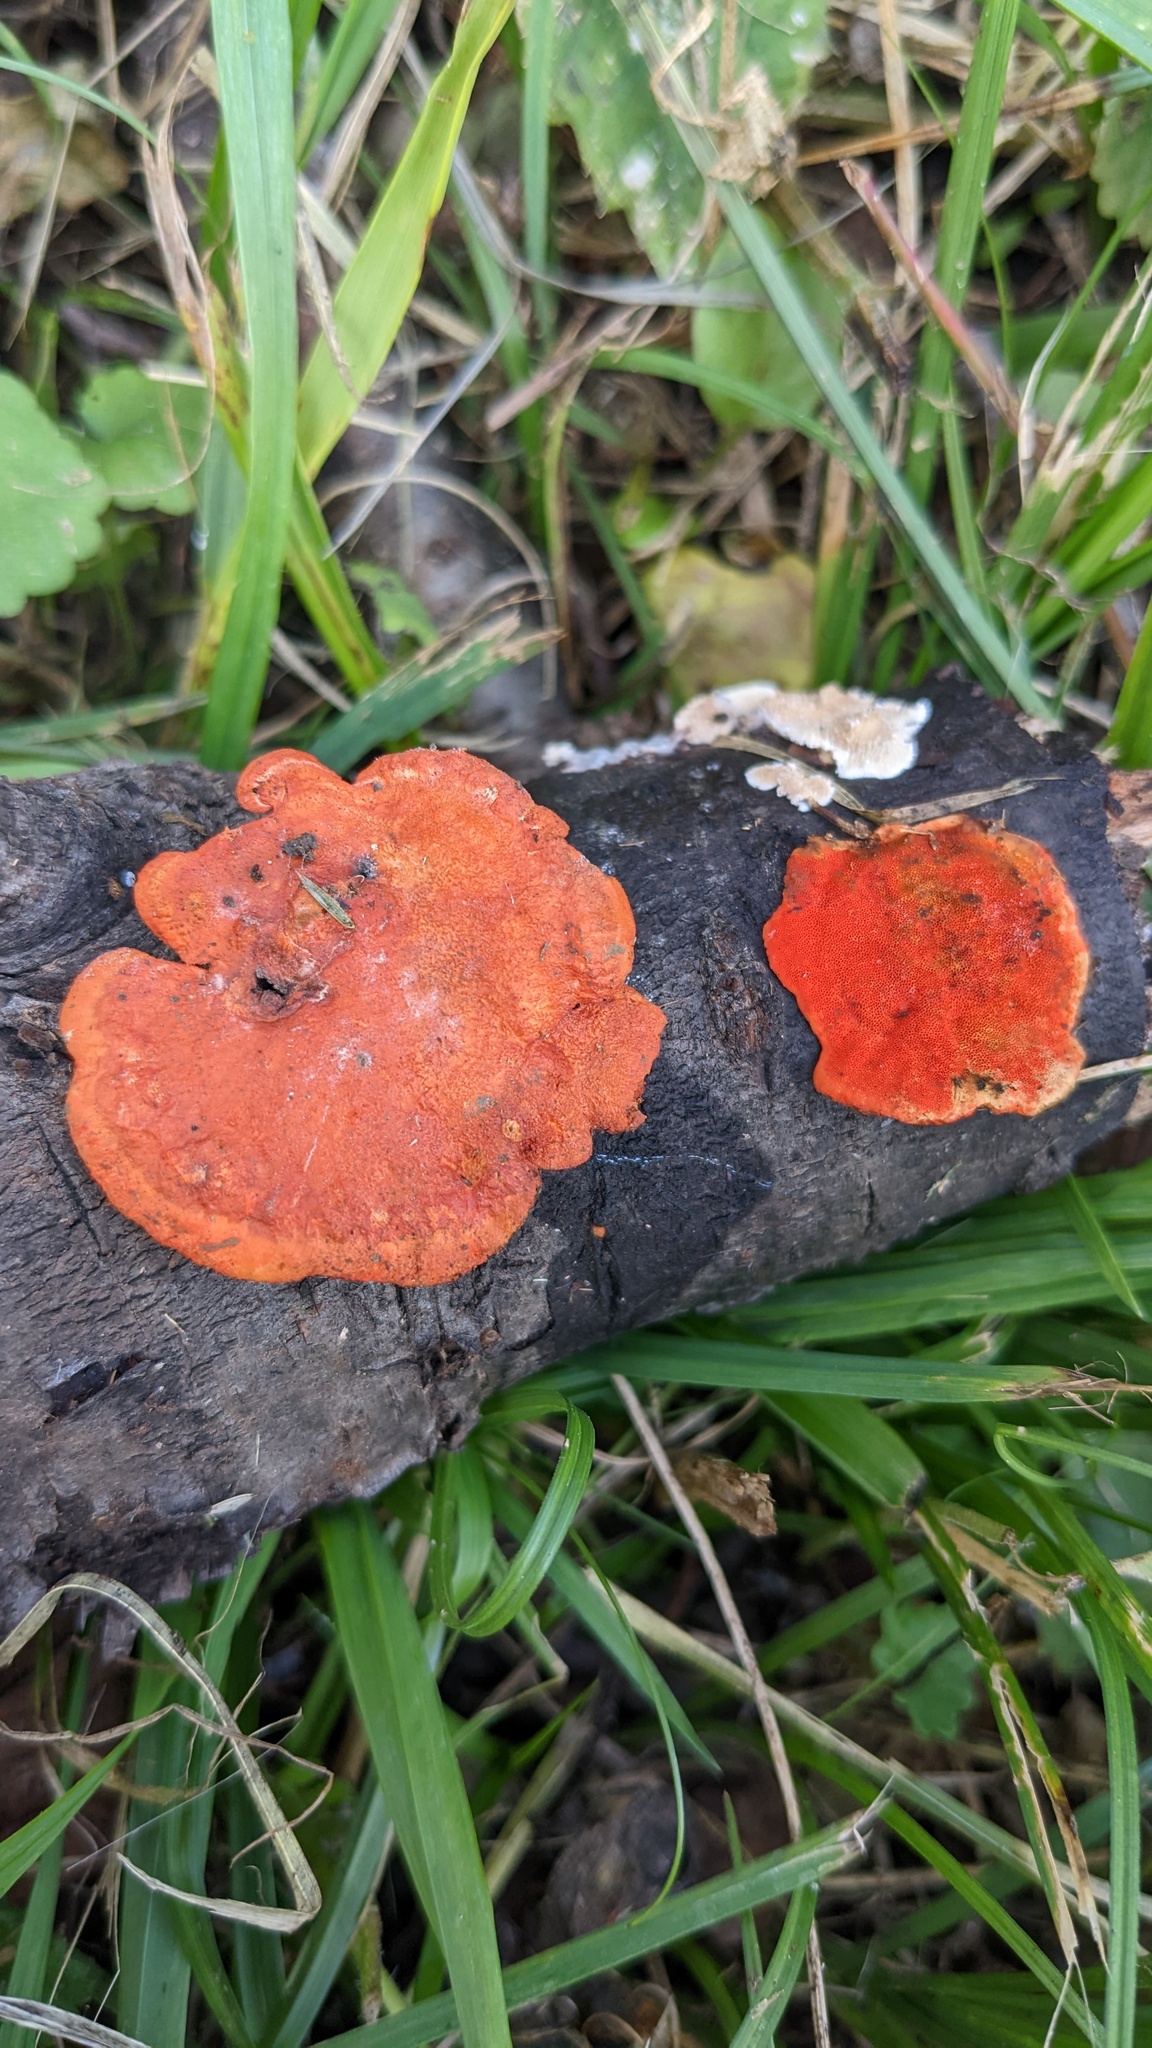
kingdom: Fungi
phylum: Basidiomycota
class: Agaricomycetes
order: Polyporales
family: Polyporaceae
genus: Trametes
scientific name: Trametes coccinea
